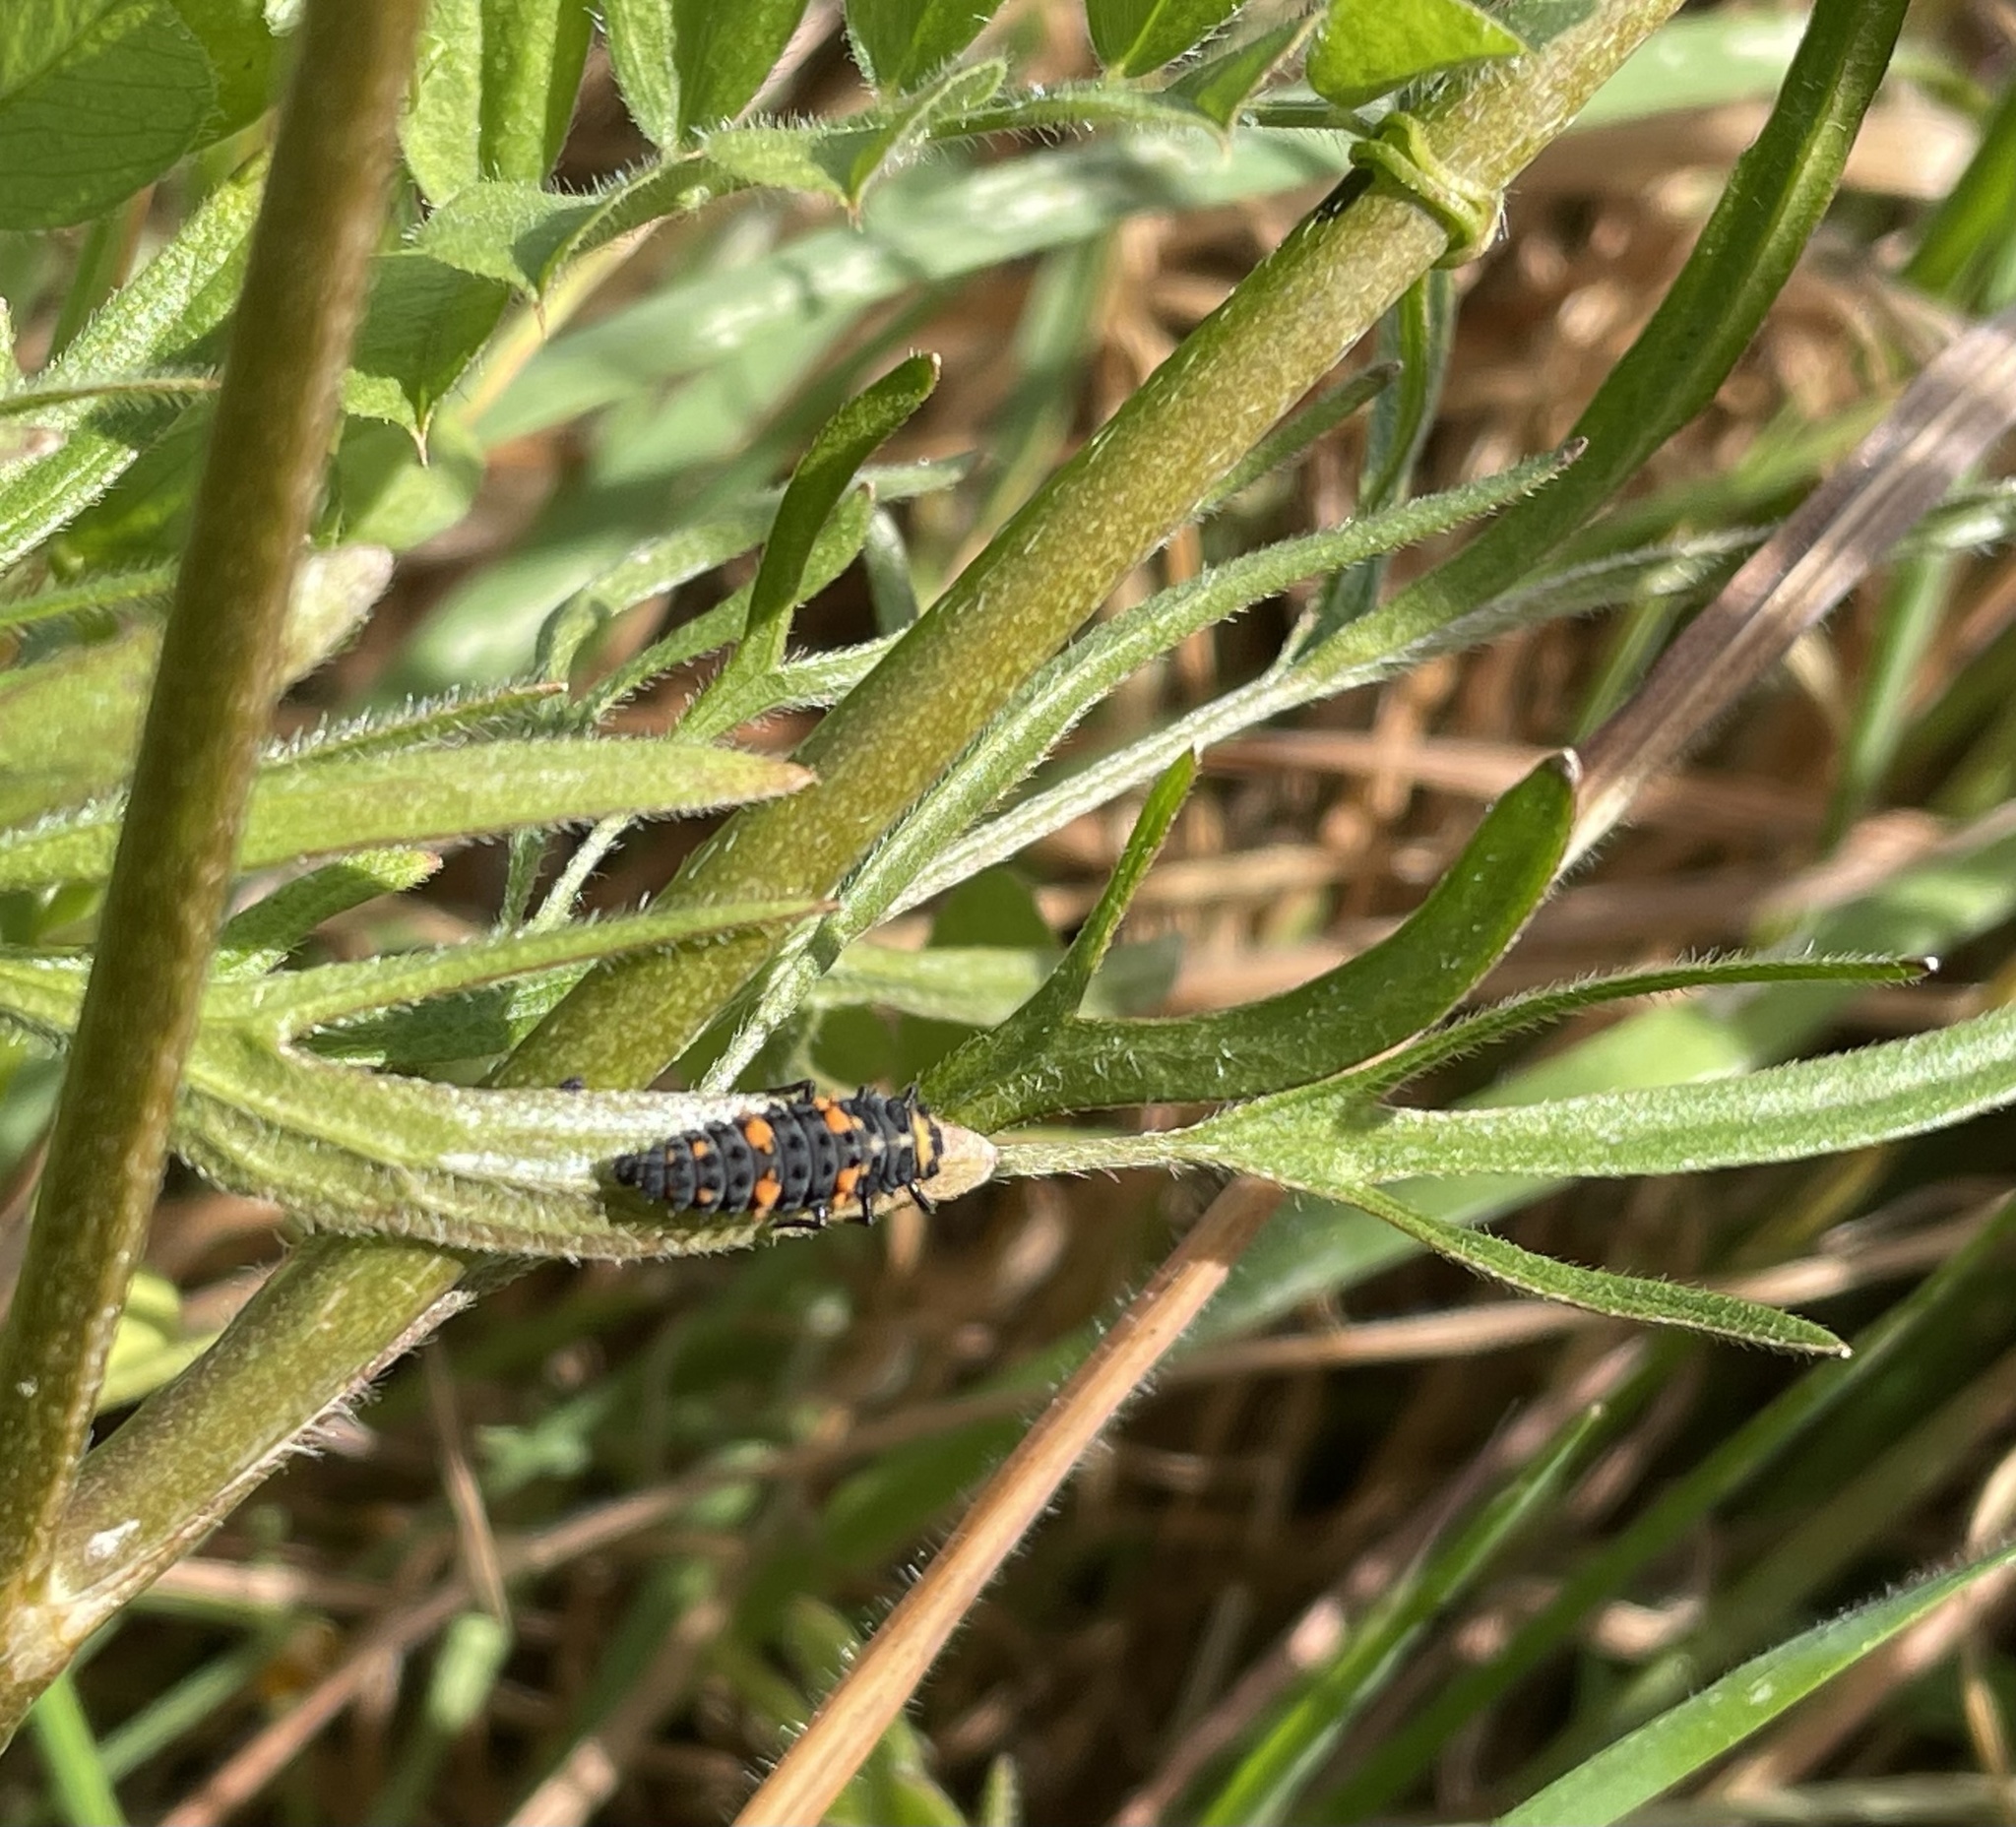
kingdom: Animalia
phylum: Arthropoda
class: Insecta
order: Coleoptera
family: Coccinellidae
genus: Coccinella
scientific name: Coccinella septempunctata
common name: Sevenspotted lady beetle
